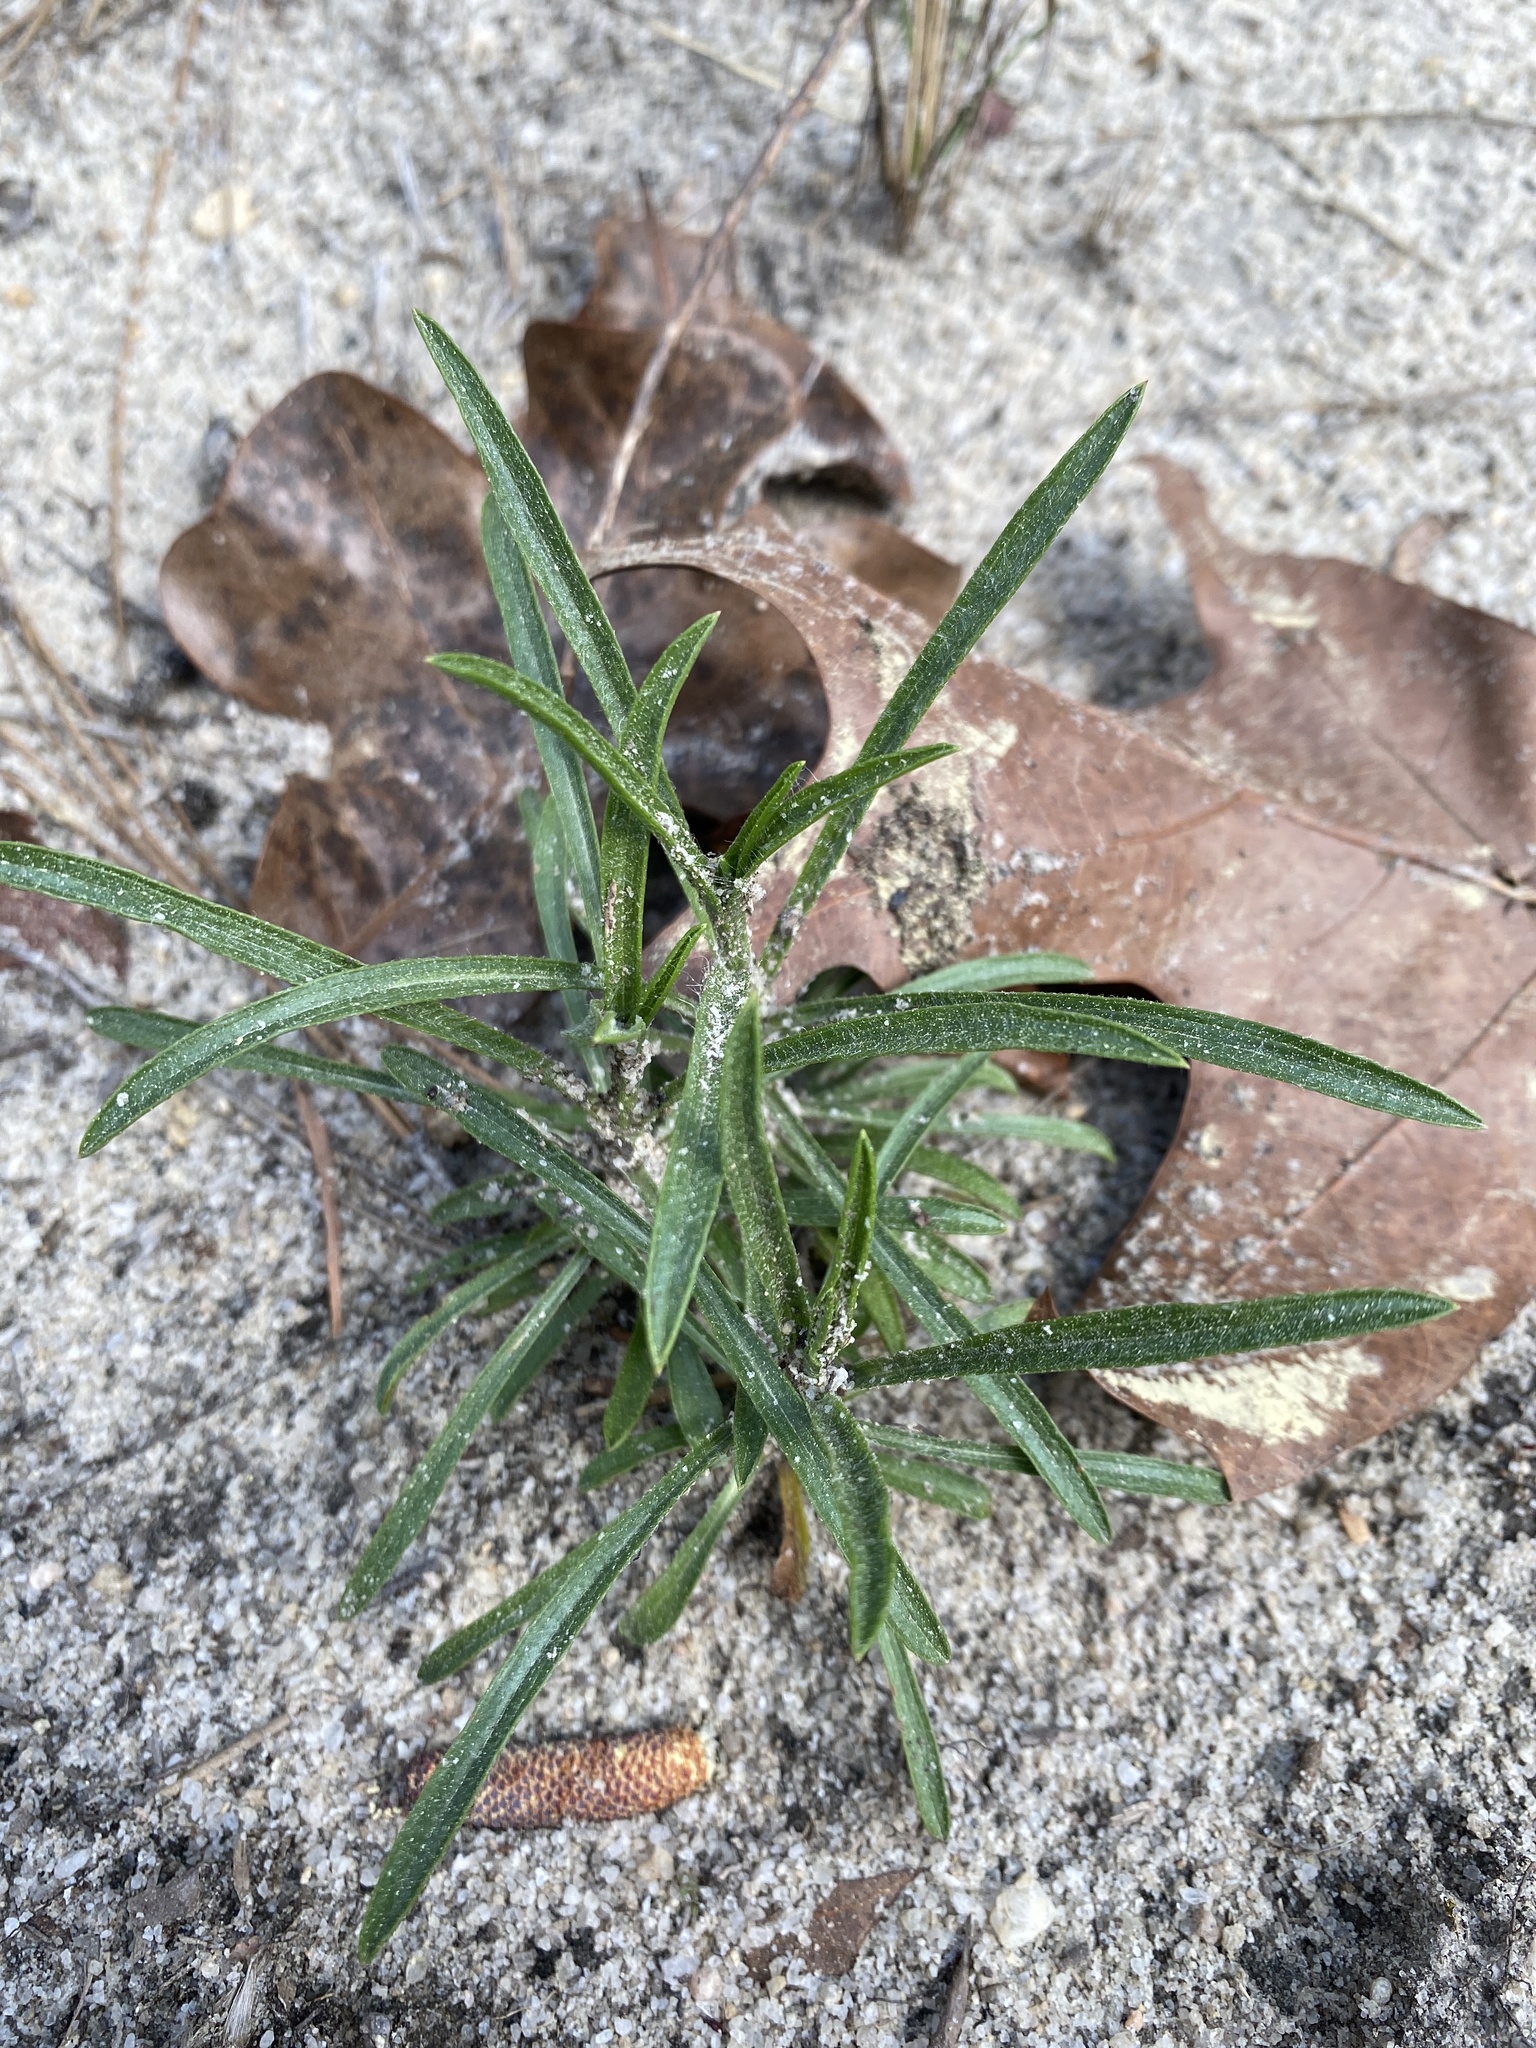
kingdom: Plantae
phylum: Tracheophyta
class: Magnoliopsida
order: Asterales
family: Asteraceae
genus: Pityopsis
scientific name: Pityopsis pinifolia
